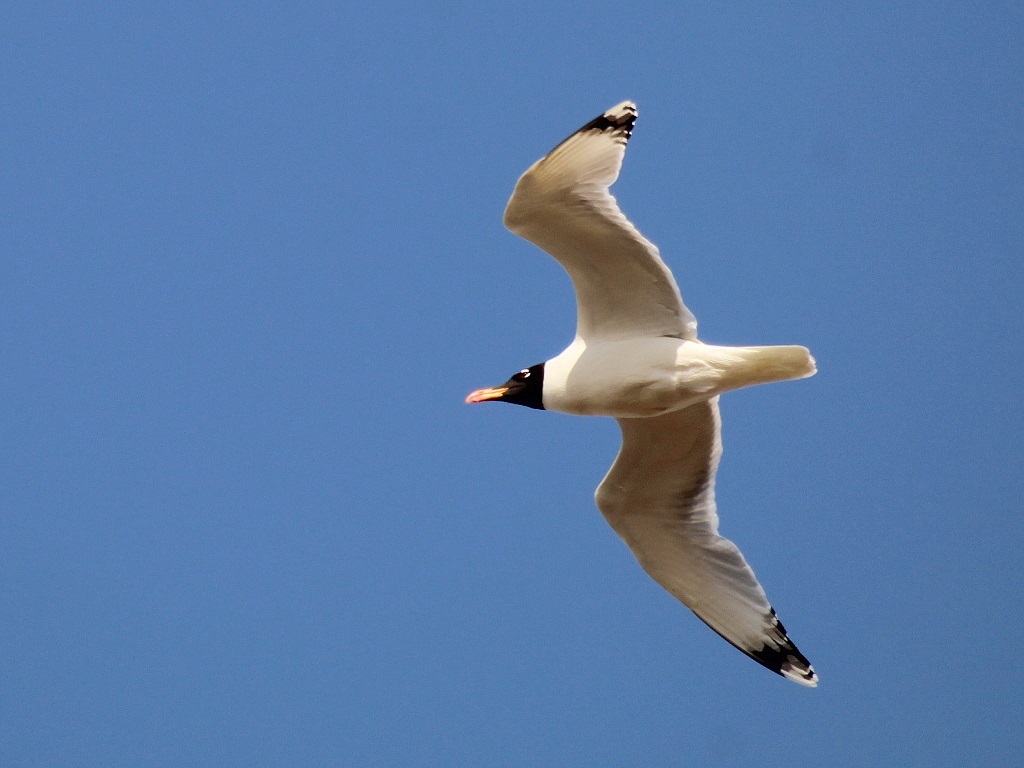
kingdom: Animalia
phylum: Chordata
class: Aves
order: Charadriiformes
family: Laridae
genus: Ichthyaetus
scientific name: Ichthyaetus ichthyaetus
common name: Pallas's gull
